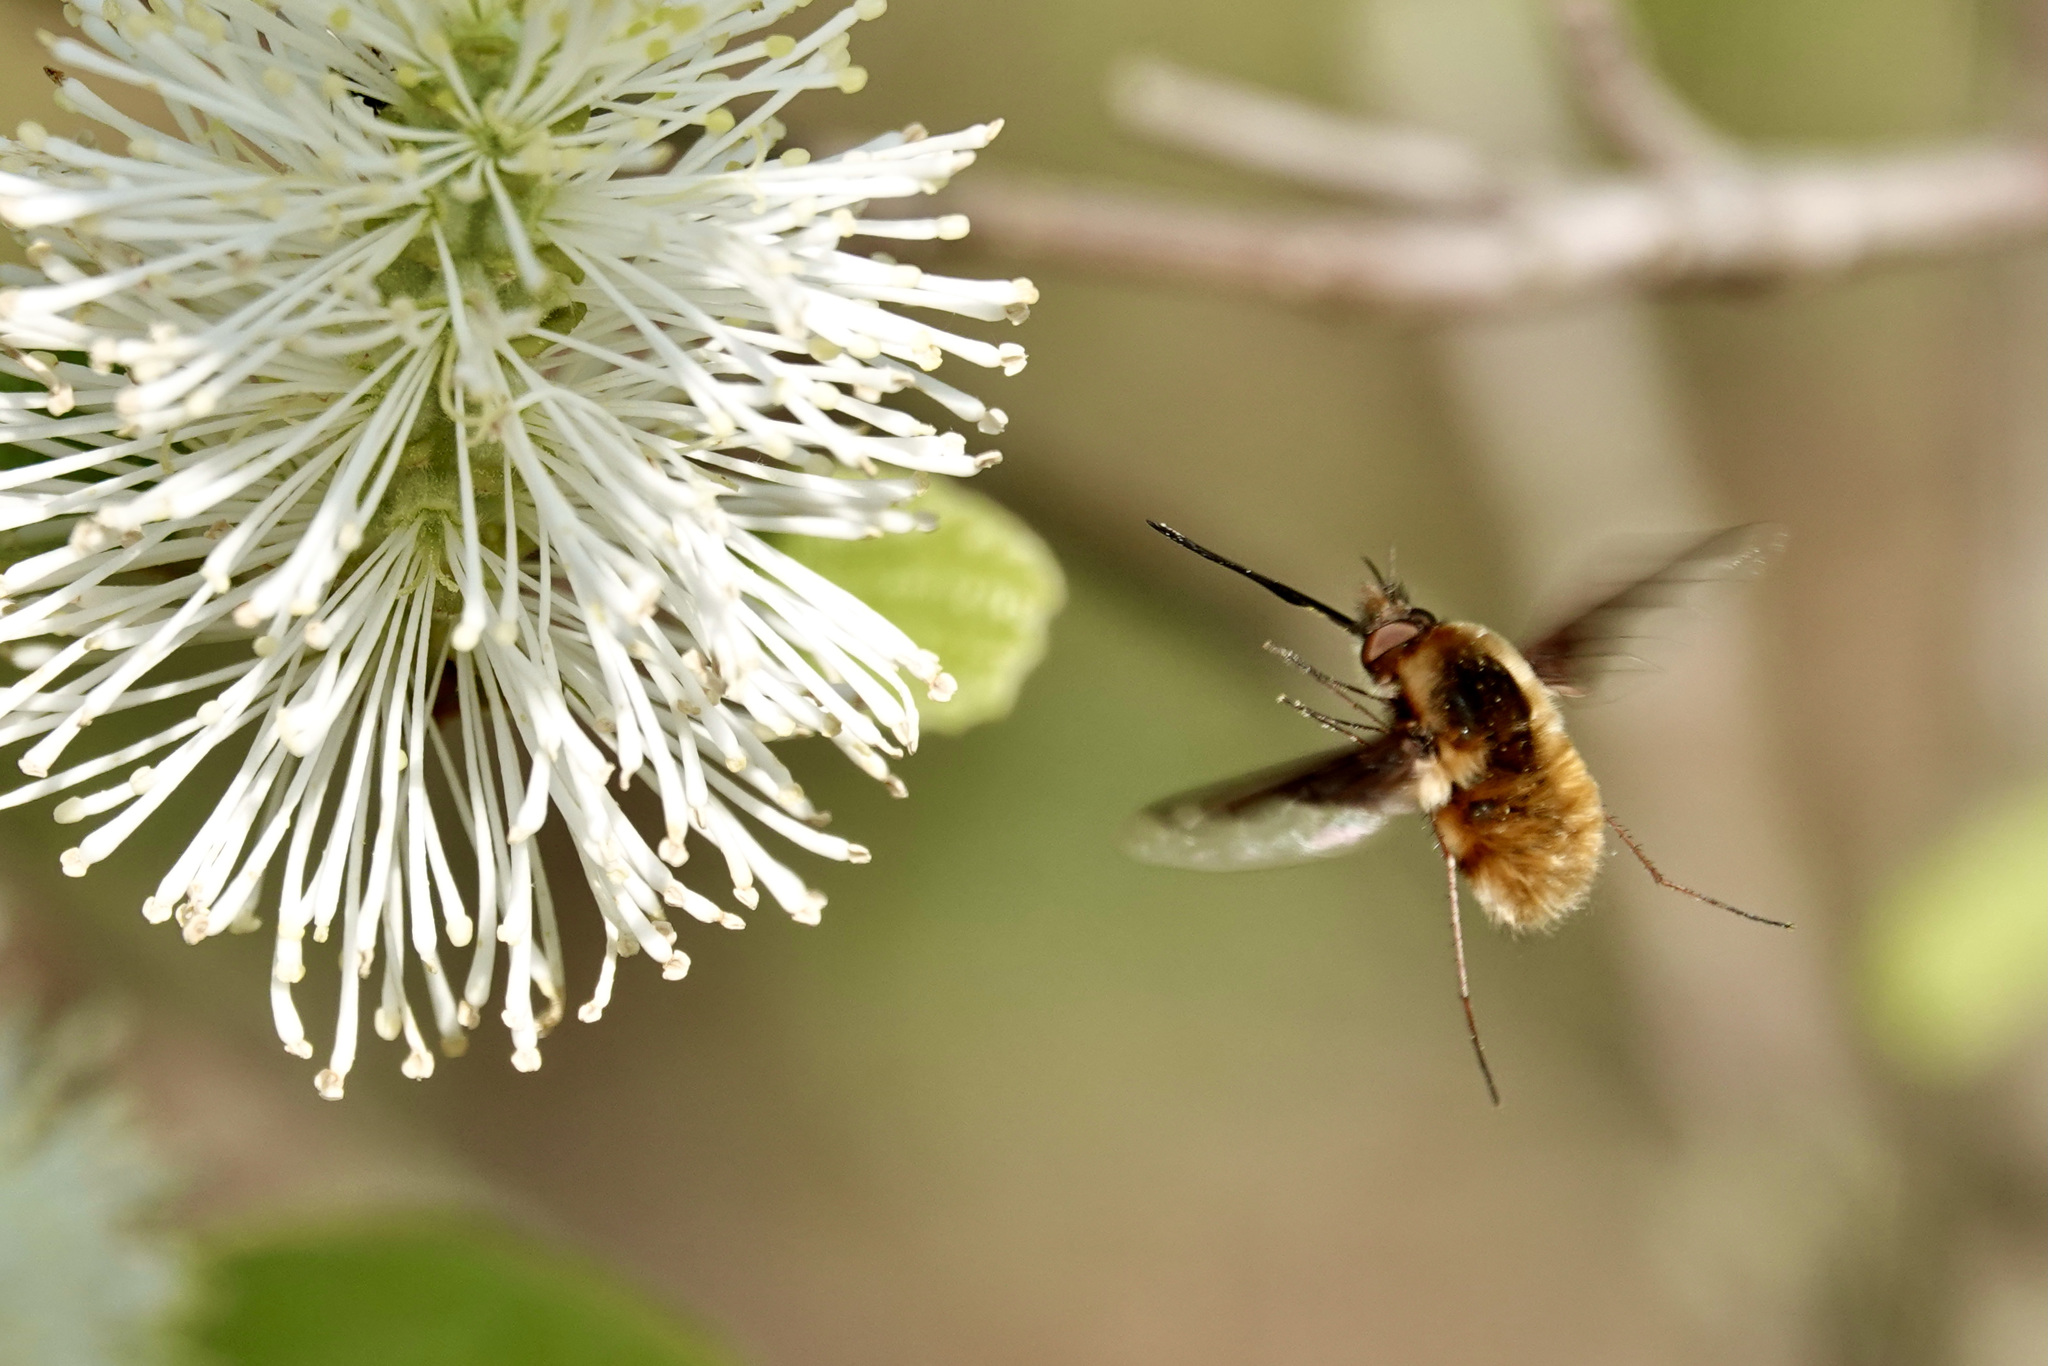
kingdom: Animalia
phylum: Arthropoda
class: Insecta
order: Diptera
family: Bombyliidae
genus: Bombylius
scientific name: Bombylius major
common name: Bee fly
